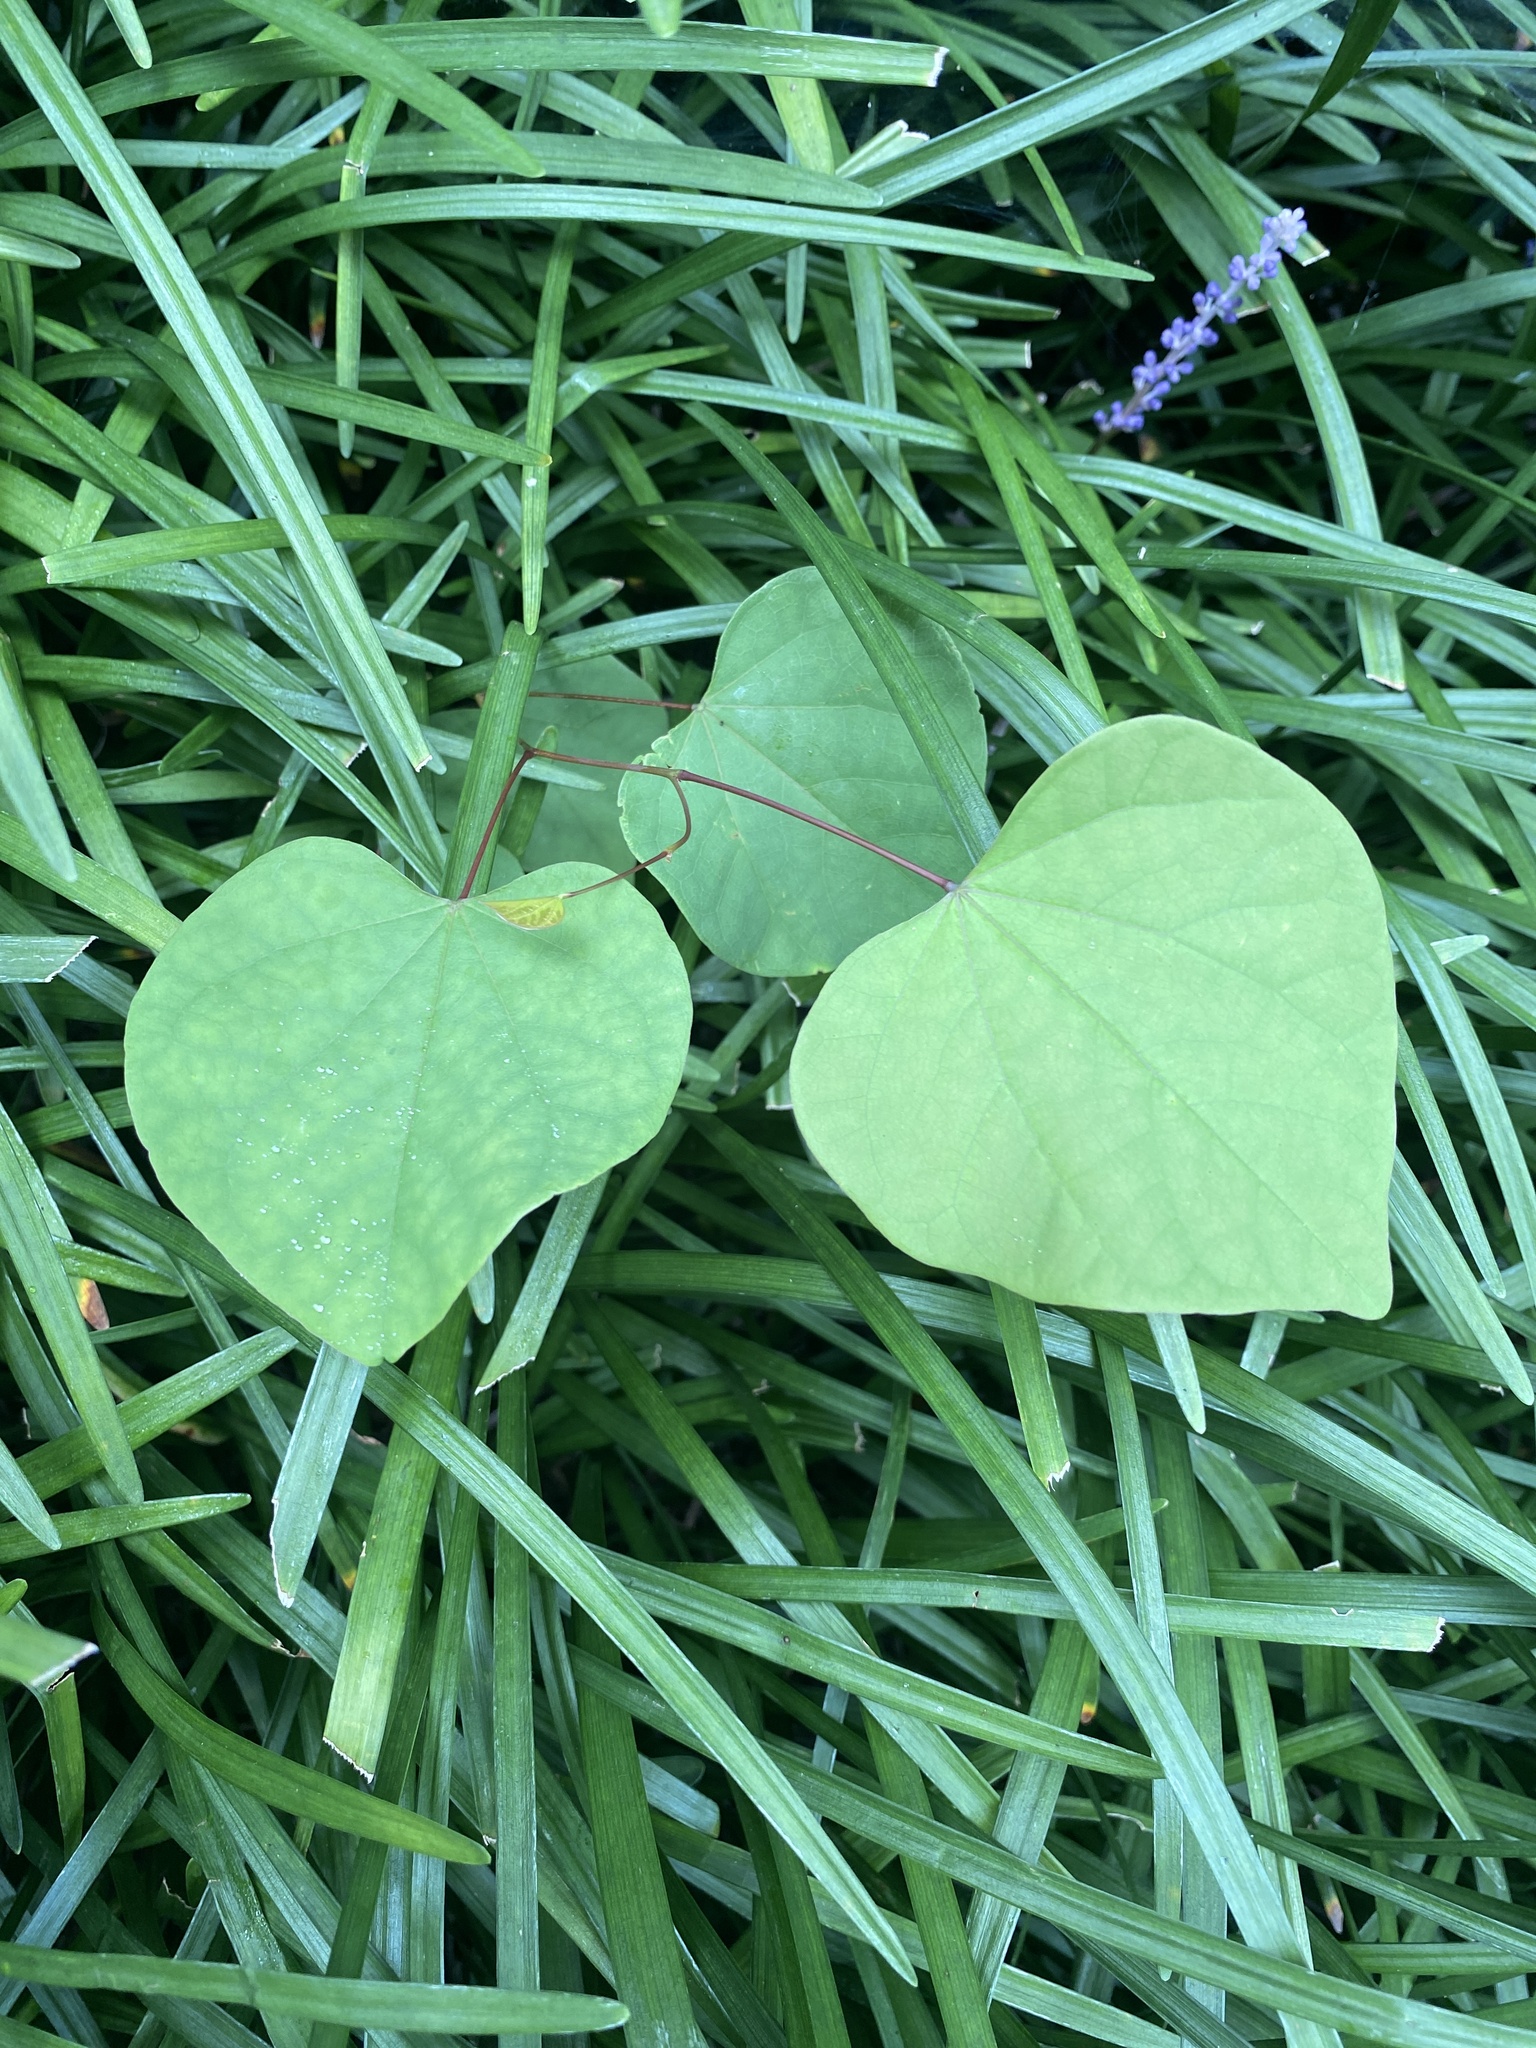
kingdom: Plantae
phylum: Tracheophyta
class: Magnoliopsida
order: Fabales
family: Fabaceae
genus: Cercis
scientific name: Cercis canadensis
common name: Eastern redbud
